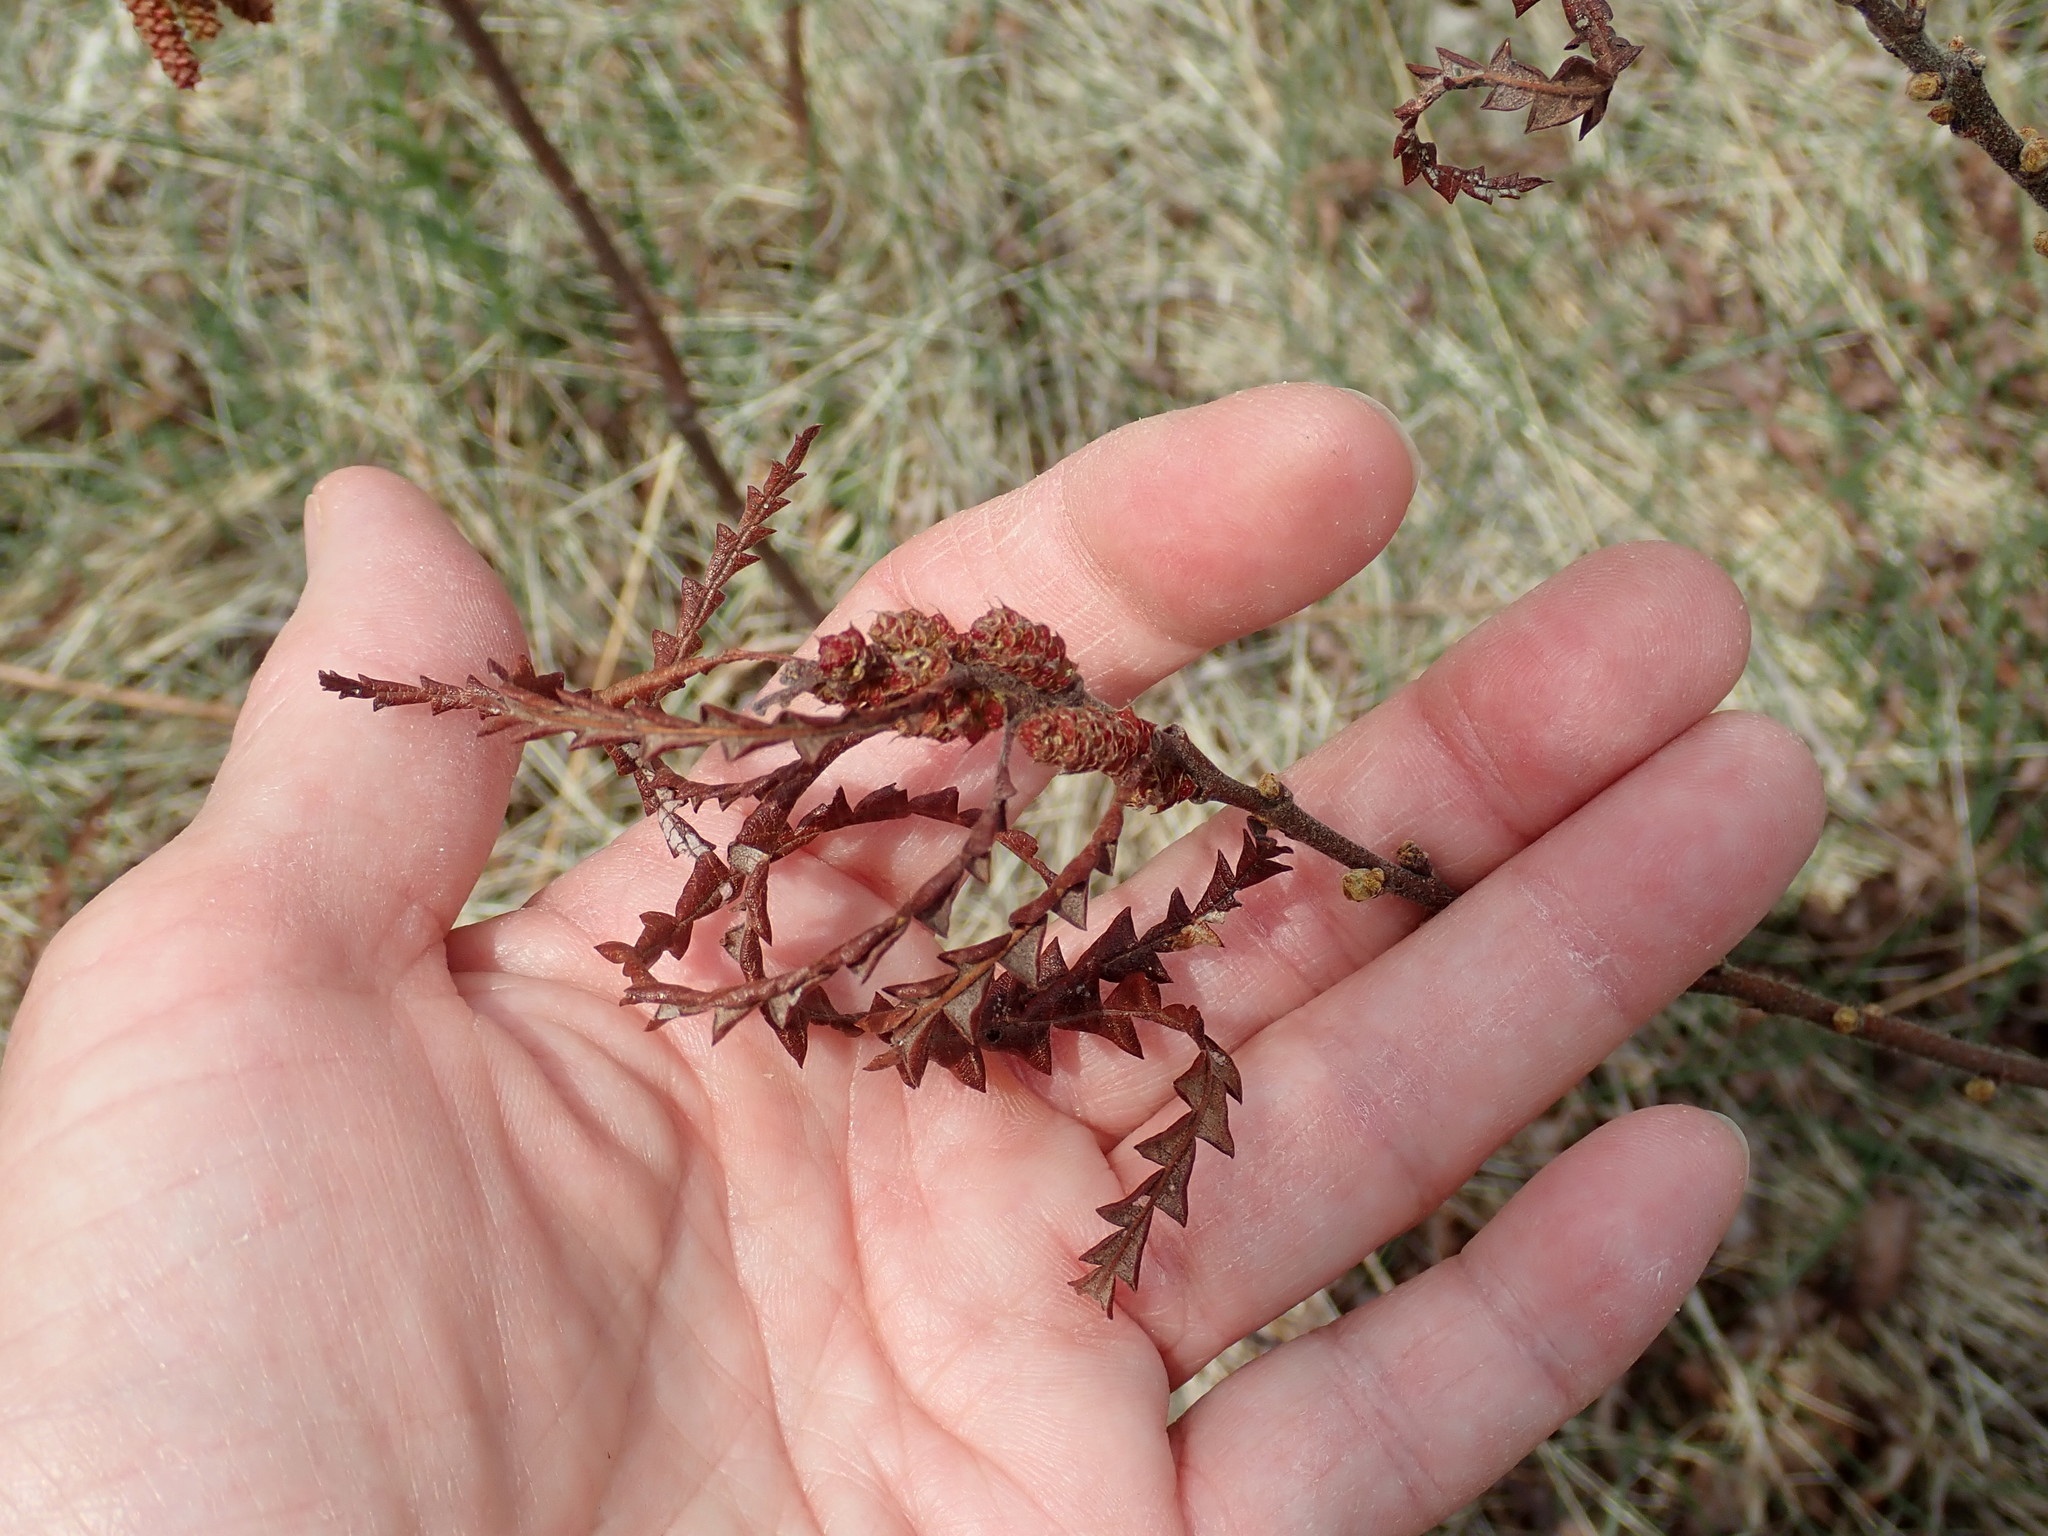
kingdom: Plantae
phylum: Tracheophyta
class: Magnoliopsida
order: Fagales
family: Myricaceae
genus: Comptonia
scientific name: Comptonia peregrina
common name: Sweet-fern
